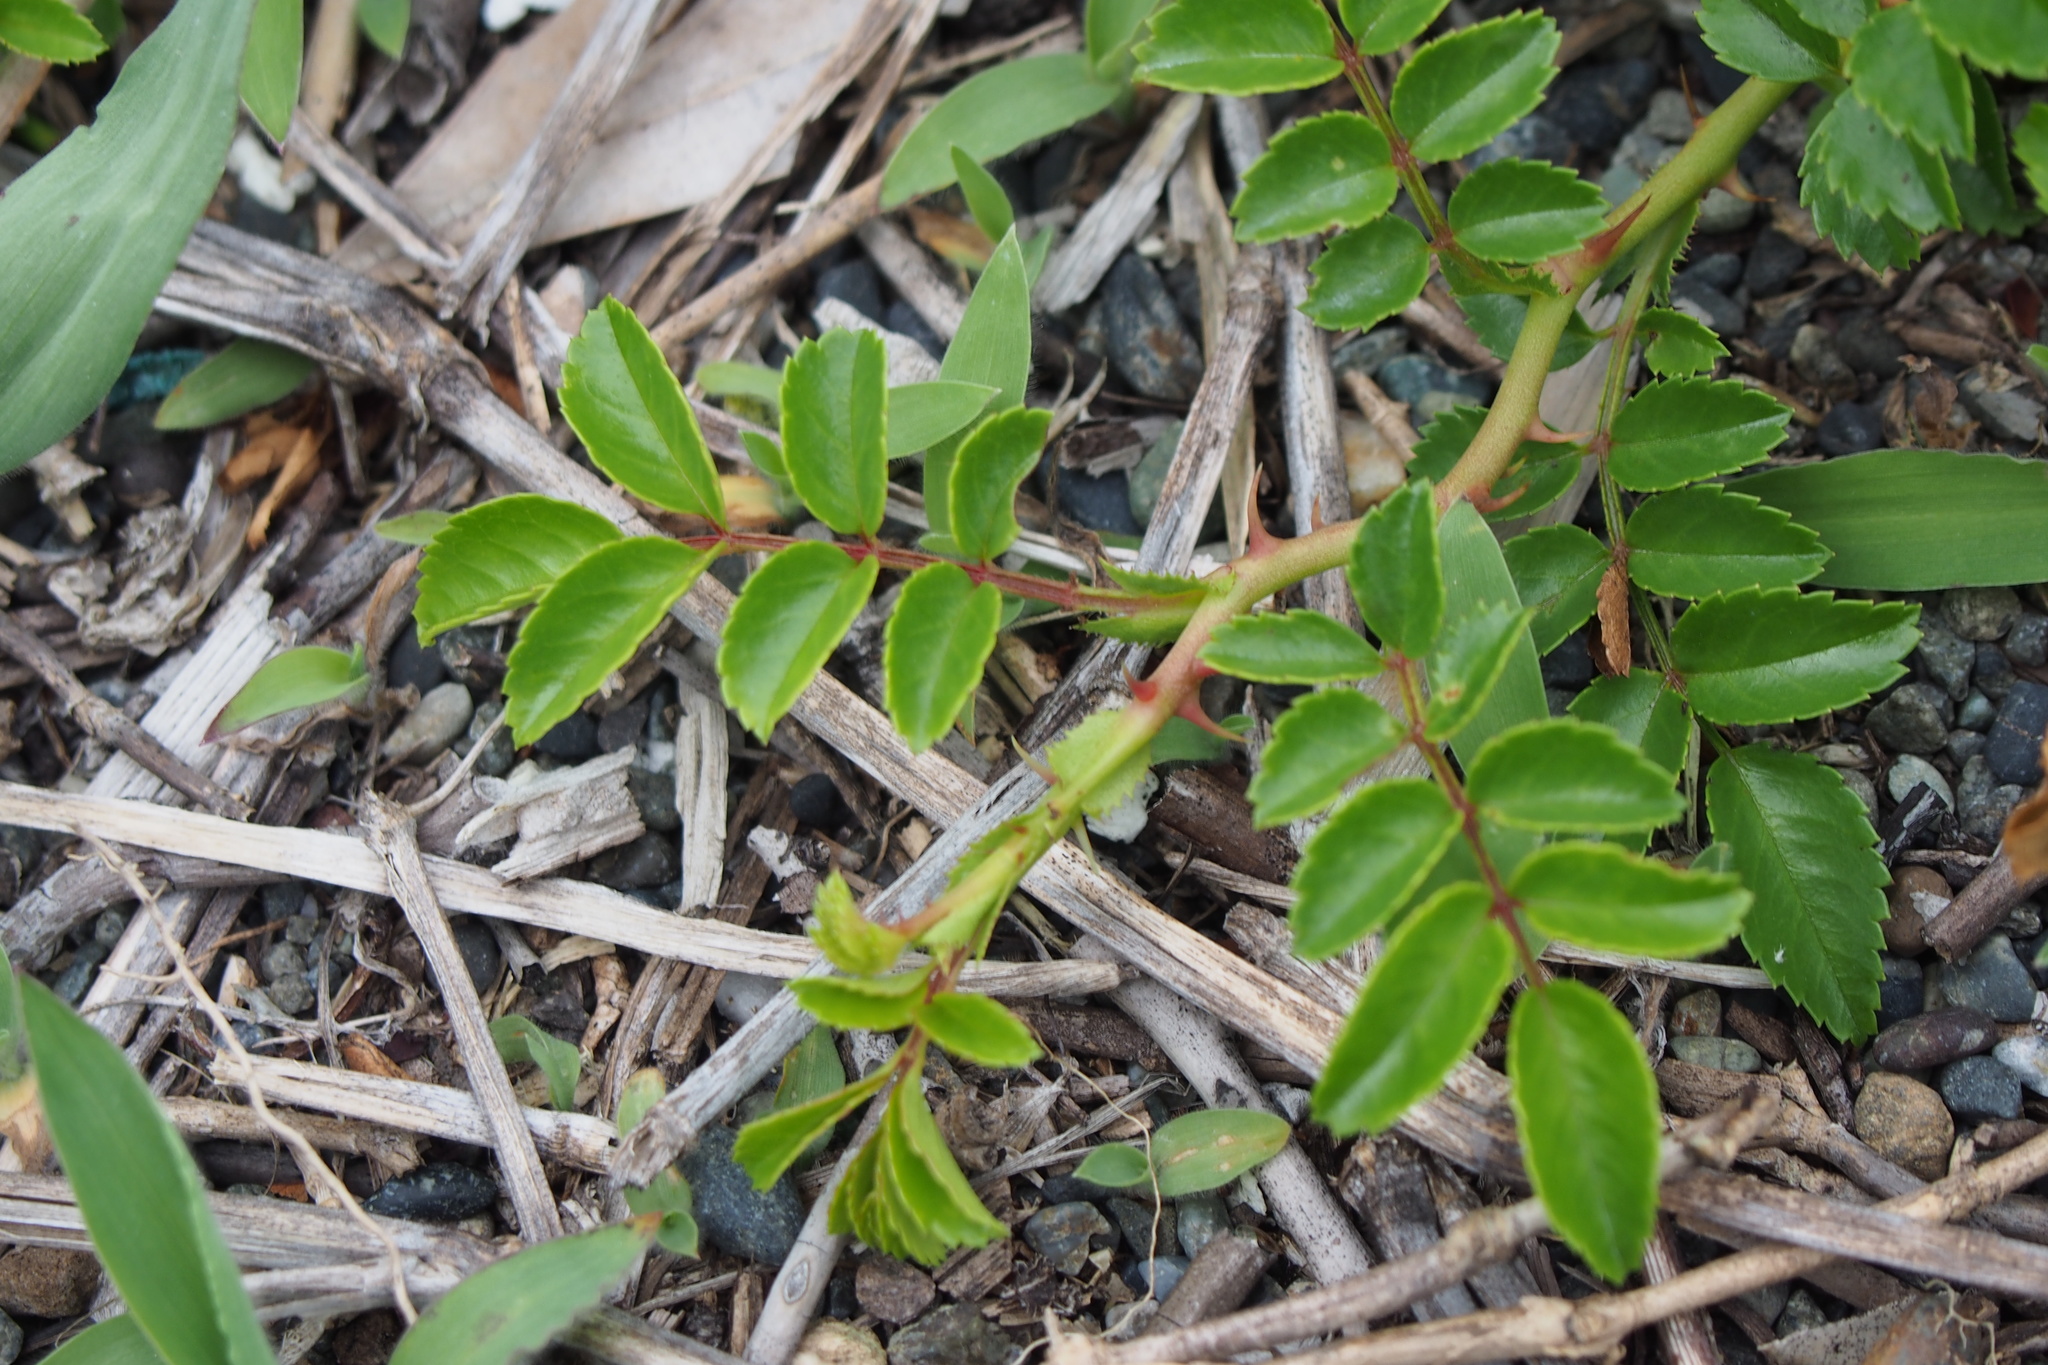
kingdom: Plantae
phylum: Tracheophyta
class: Magnoliopsida
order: Rosales
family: Rosaceae
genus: Rosa
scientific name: Rosa lucieae
